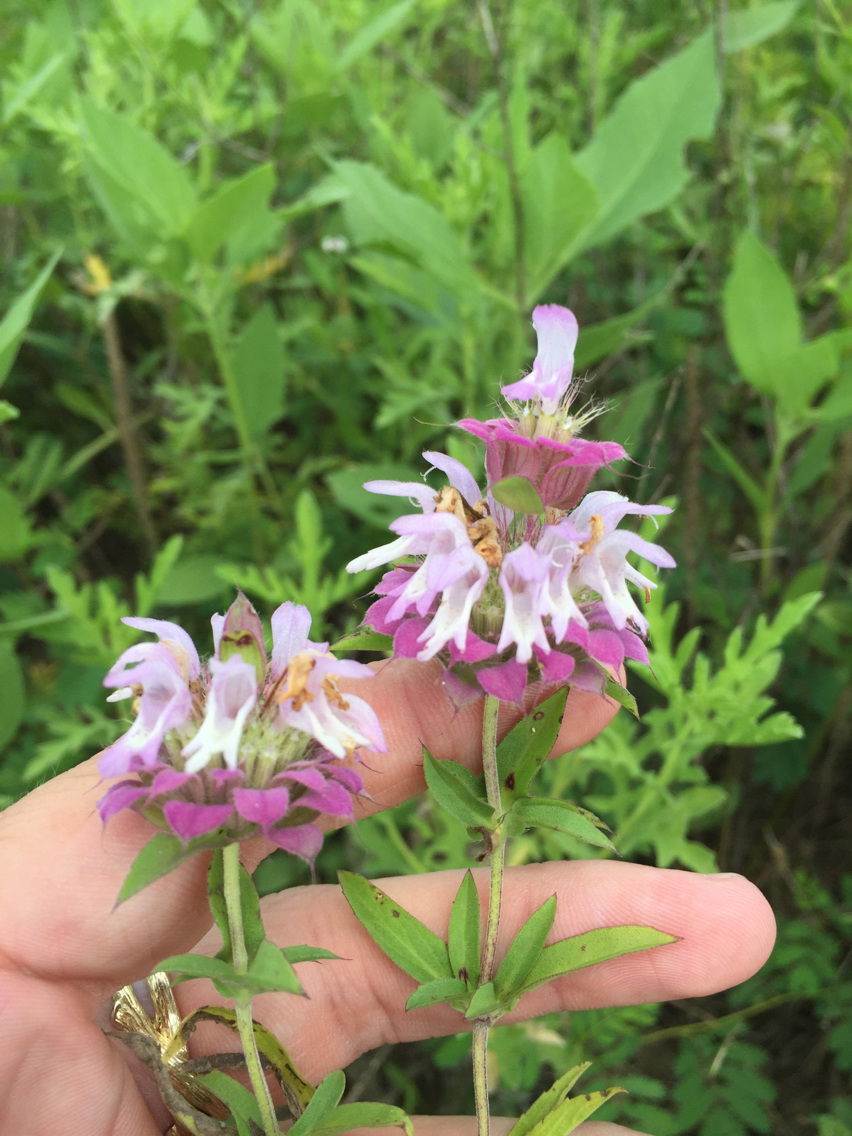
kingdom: Plantae
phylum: Tracheophyta
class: Magnoliopsida
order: Lamiales
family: Lamiaceae
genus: Monarda
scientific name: Monarda citriodora
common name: Lemon beebalm
